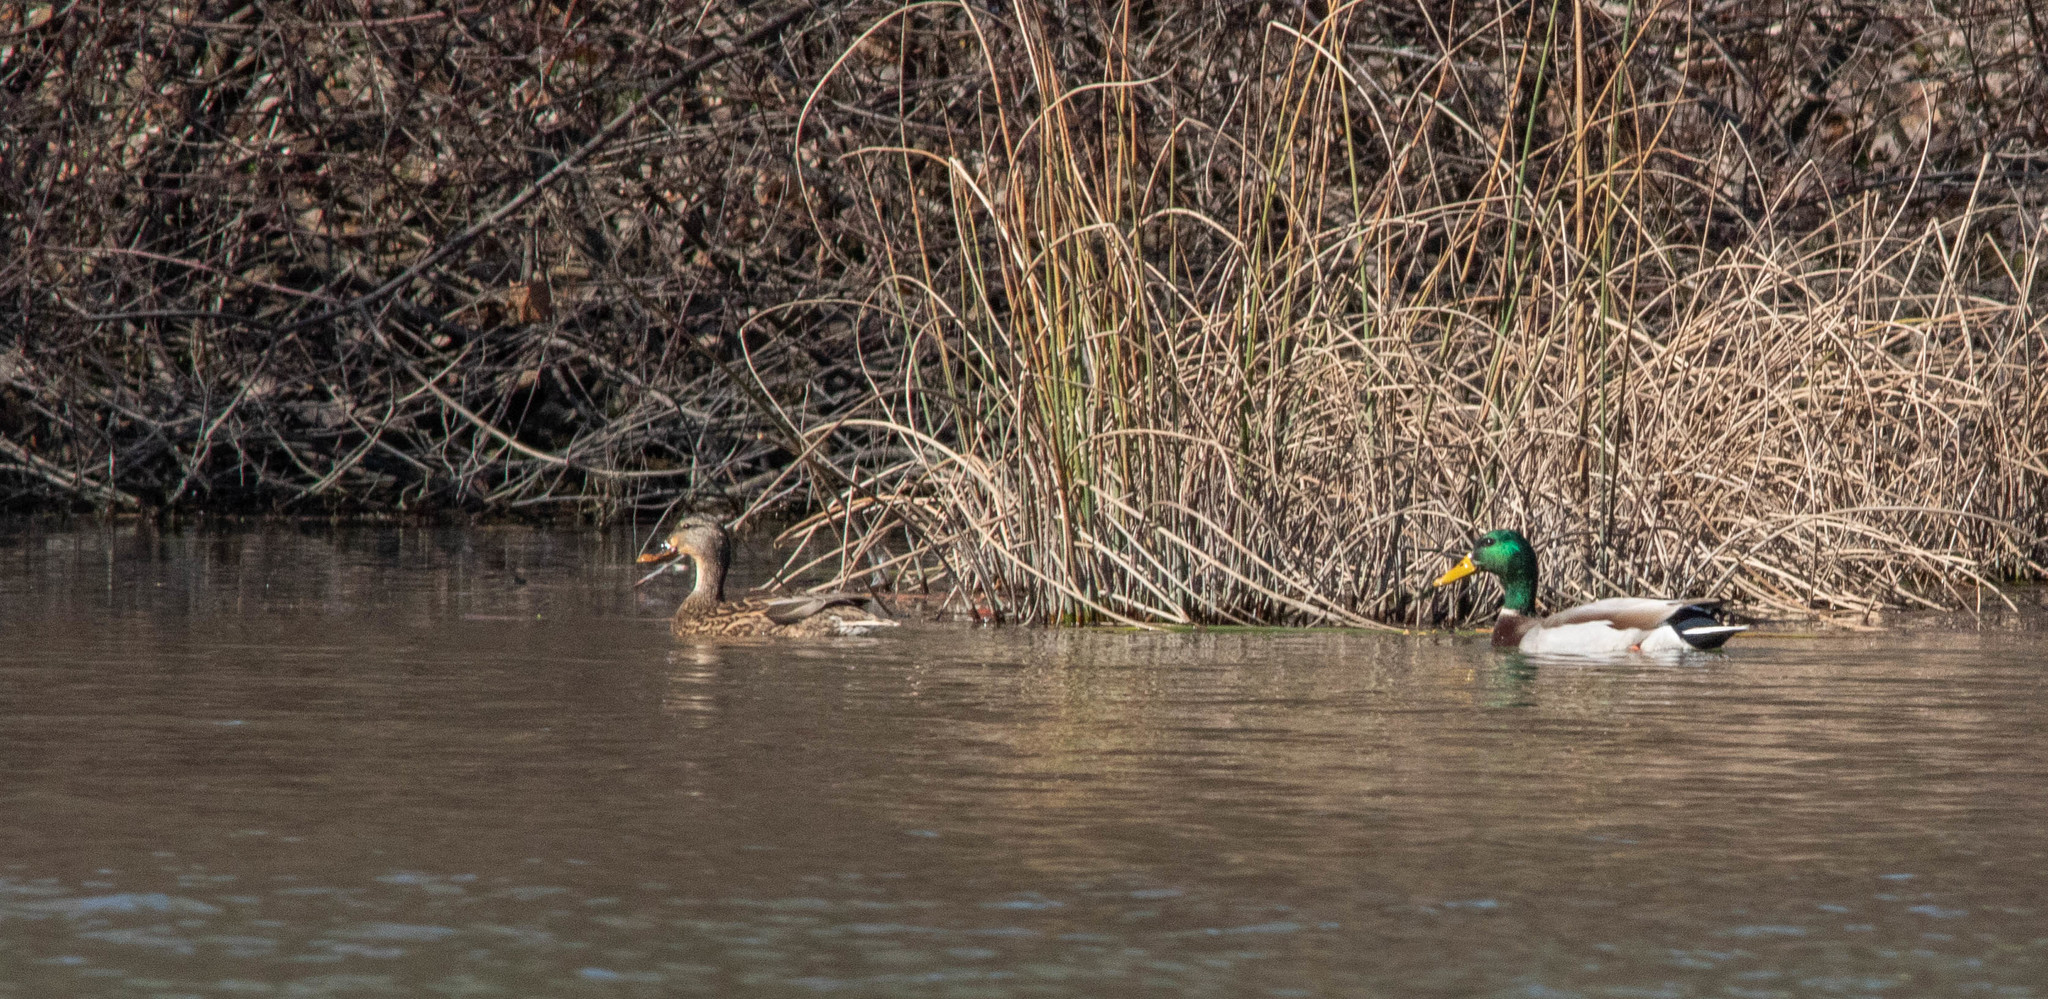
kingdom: Animalia
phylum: Chordata
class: Aves
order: Anseriformes
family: Anatidae
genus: Anas
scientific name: Anas platyrhynchos
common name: Mallard
